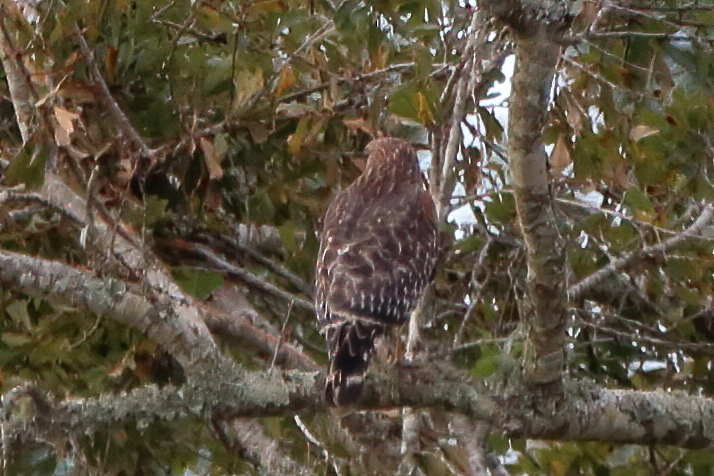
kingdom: Animalia
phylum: Chordata
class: Aves
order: Accipitriformes
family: Accipitridae
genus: Buteo
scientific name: Buteo lineatus
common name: Red-shouldered hawk
